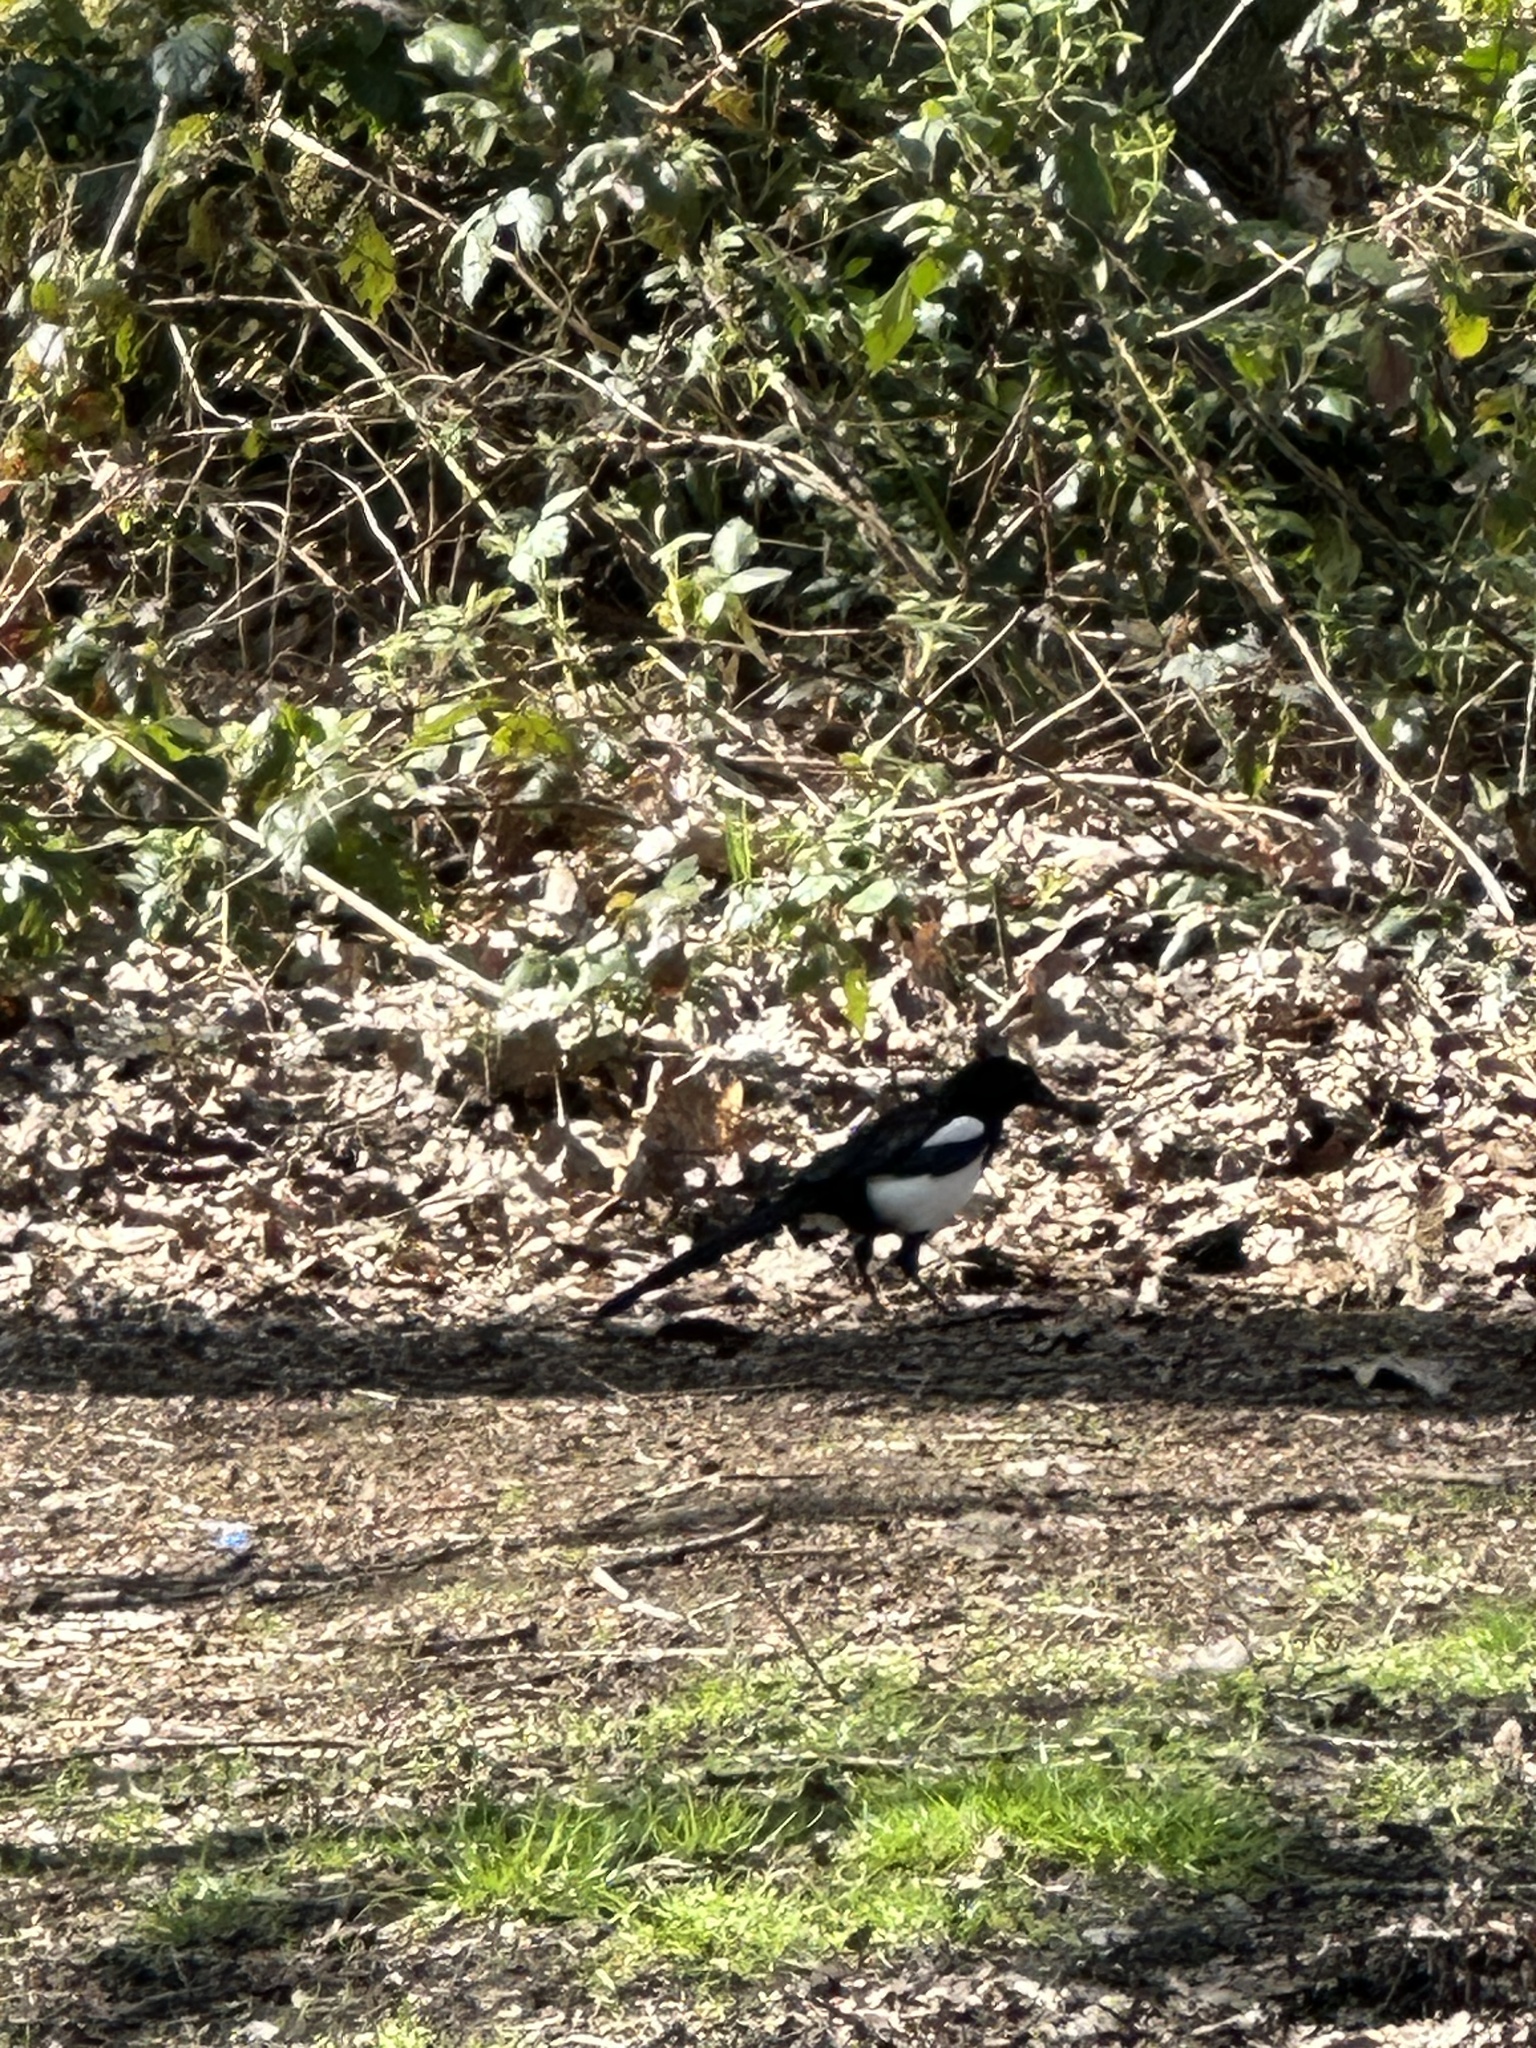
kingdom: Animalia
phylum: Chordata
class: Aves
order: Passeriformes
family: Corvidae
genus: Pica
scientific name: Pica pica
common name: Eurasian magpie
